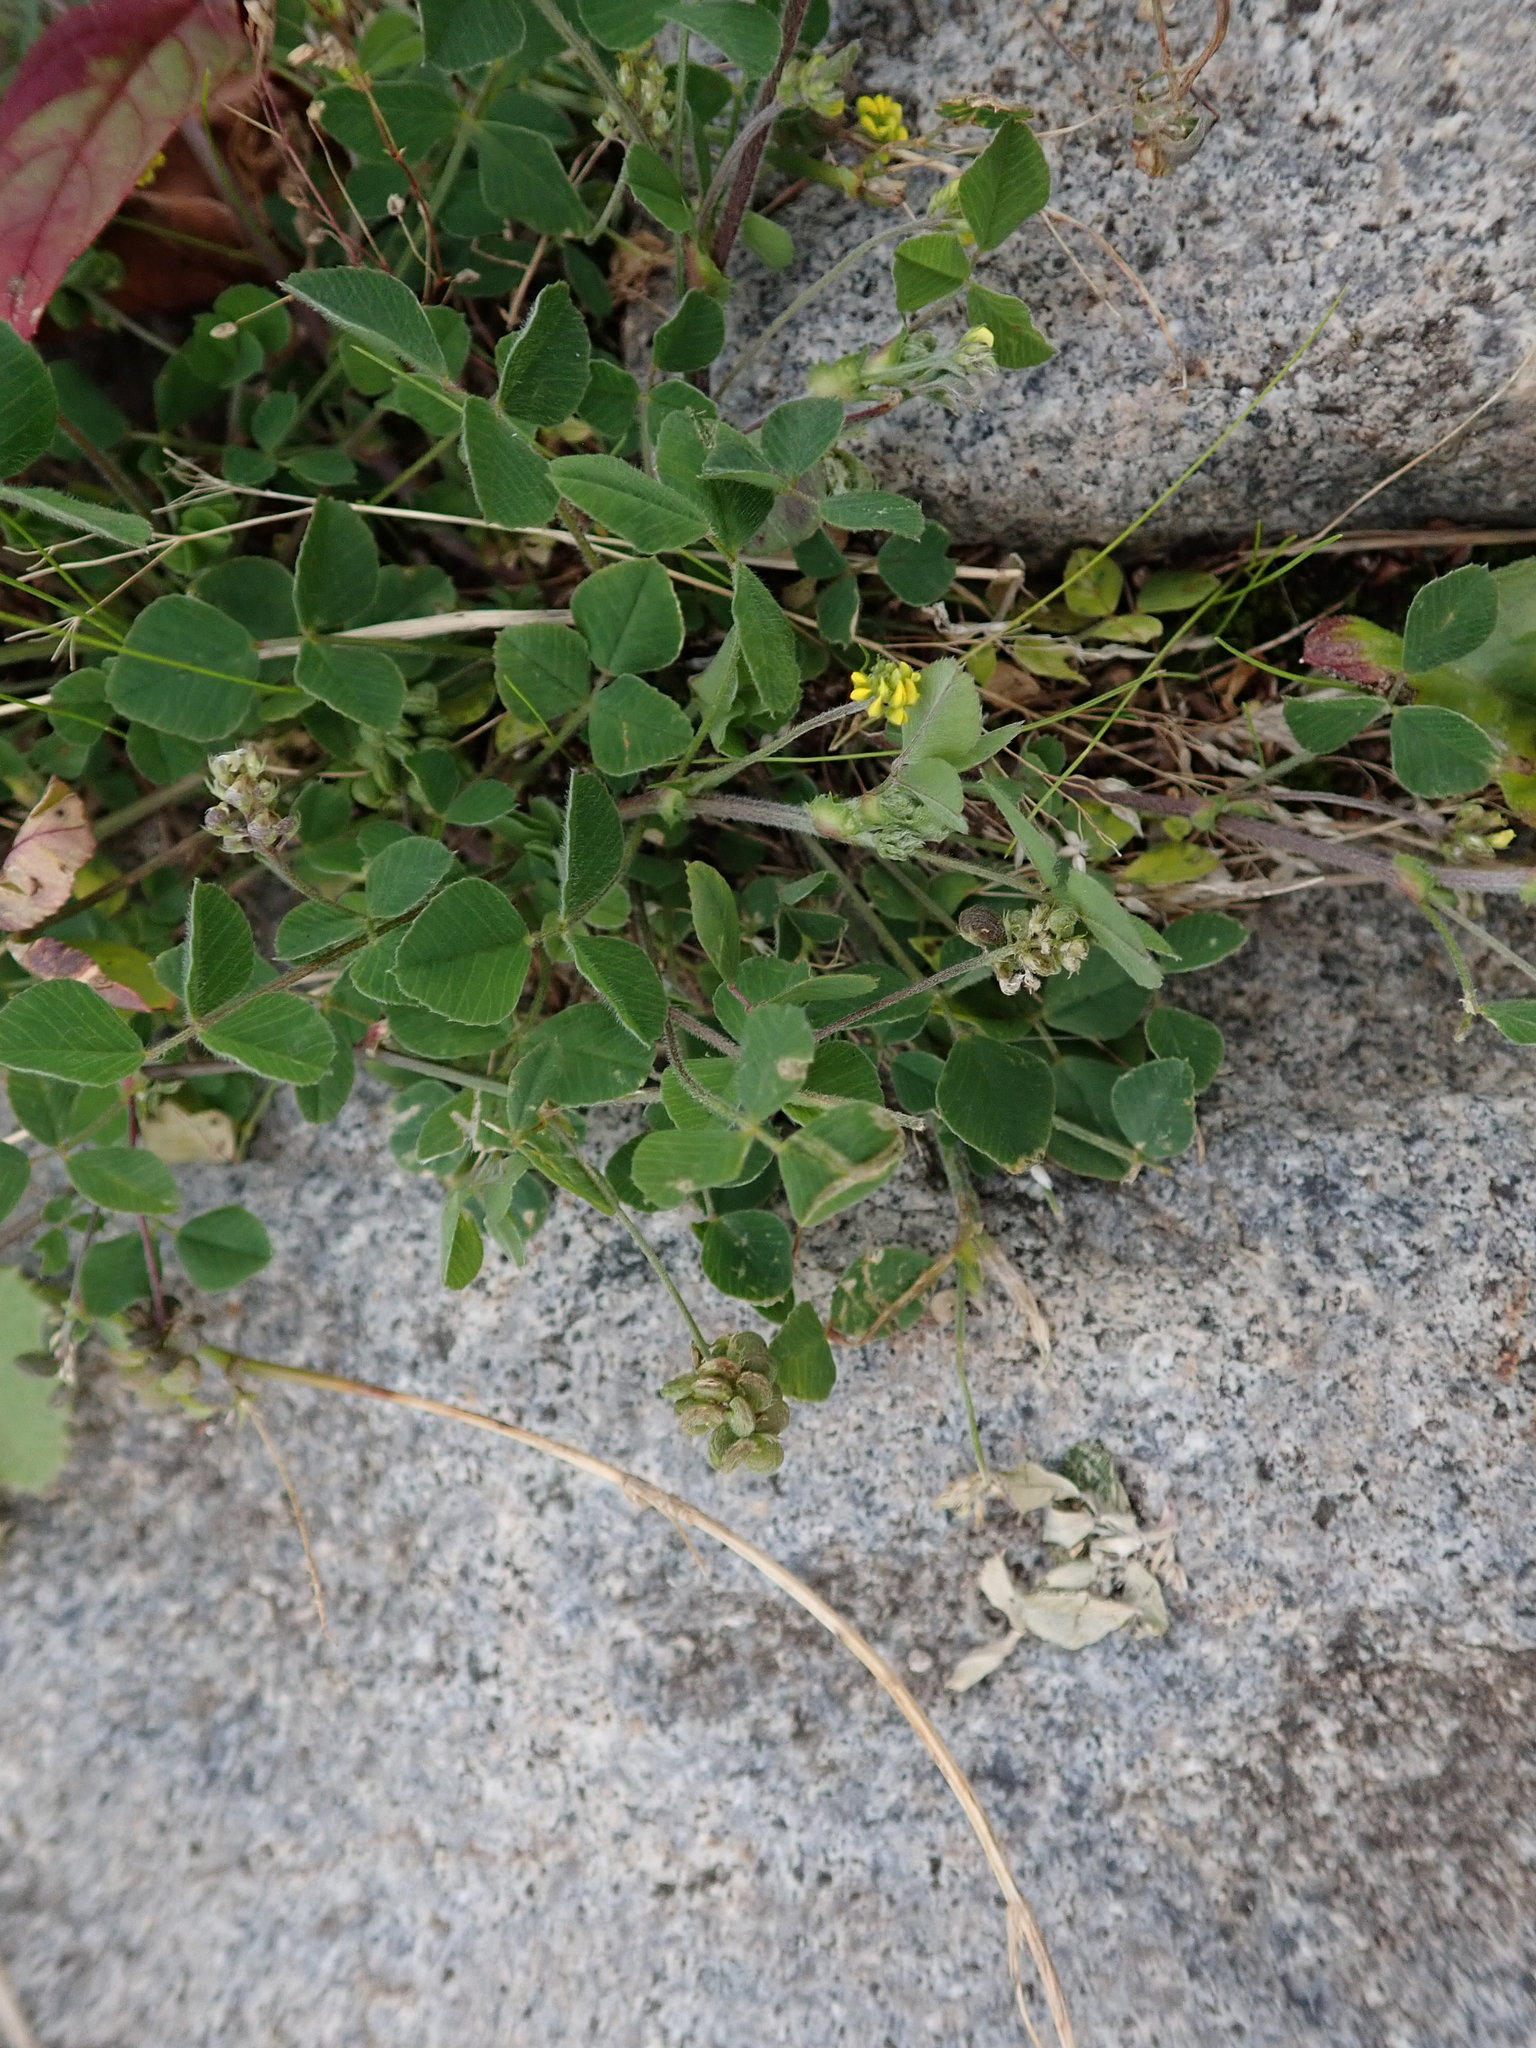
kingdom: Plantae
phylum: Tracheophyta
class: Magnoliopsida
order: Fabales
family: Fabaceae
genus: Medicago
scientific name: Medicago lupulina
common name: Black medick
